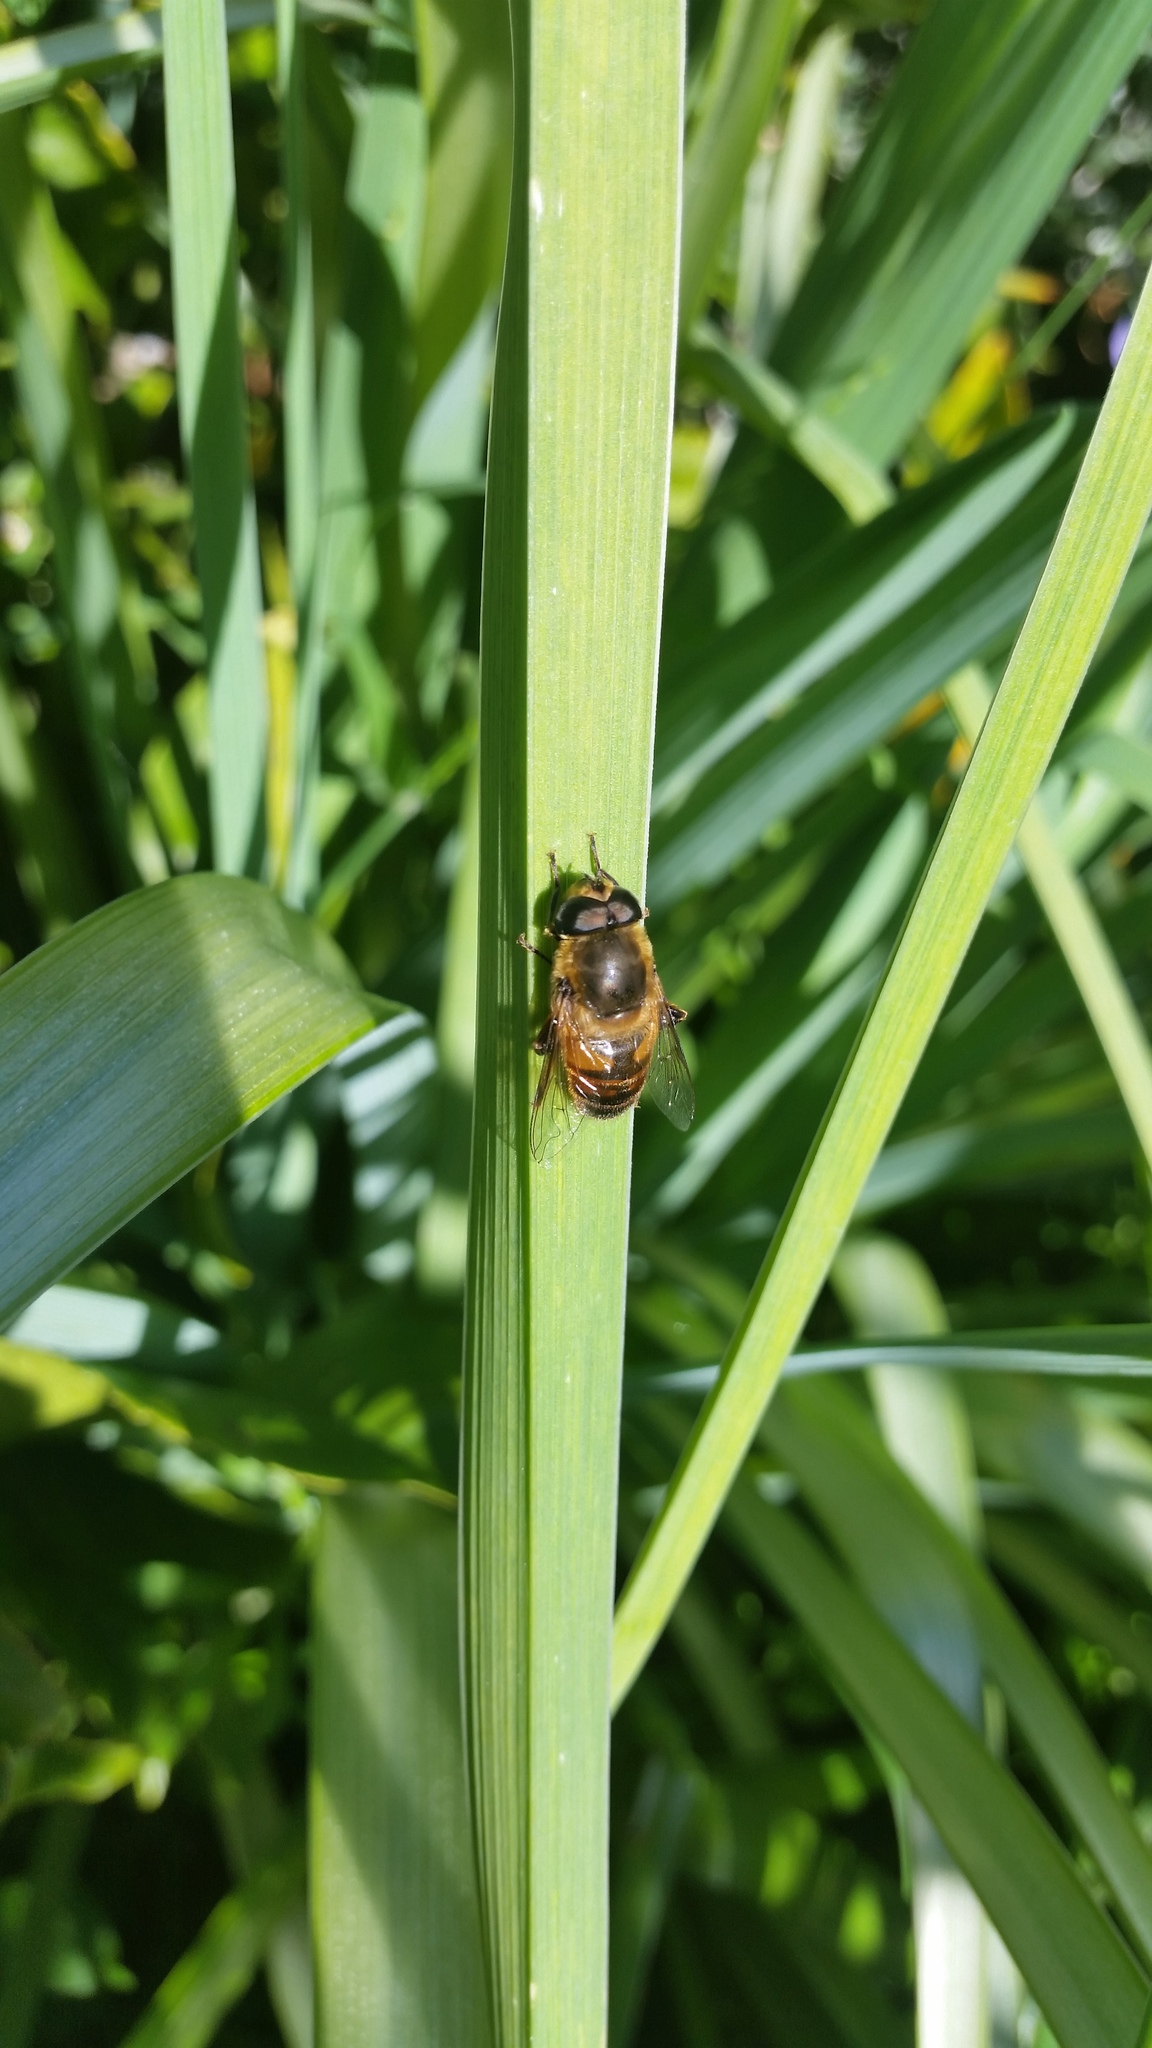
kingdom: Animalia
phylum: Arthropoda
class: Insecta
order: Diptera
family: Syrphidae
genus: Eristalis
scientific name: Eristalis tenax
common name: Drone fly
